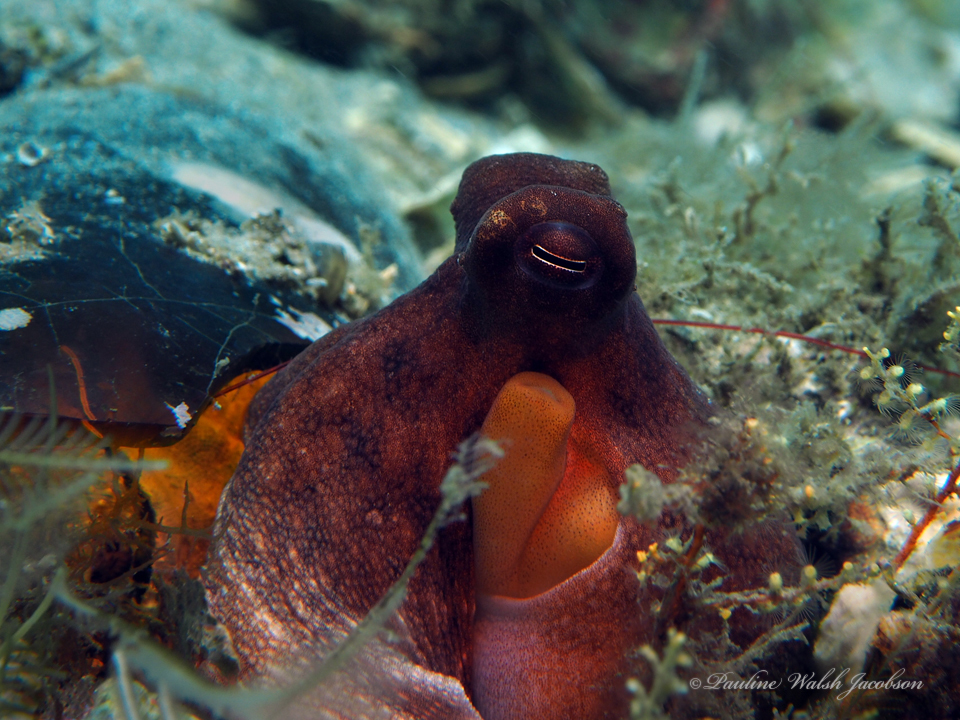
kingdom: Animalia
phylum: Mollusca
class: Cephalopoda
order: Octopoda
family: Octopodidae
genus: Octopus
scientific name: Octopus americanus
